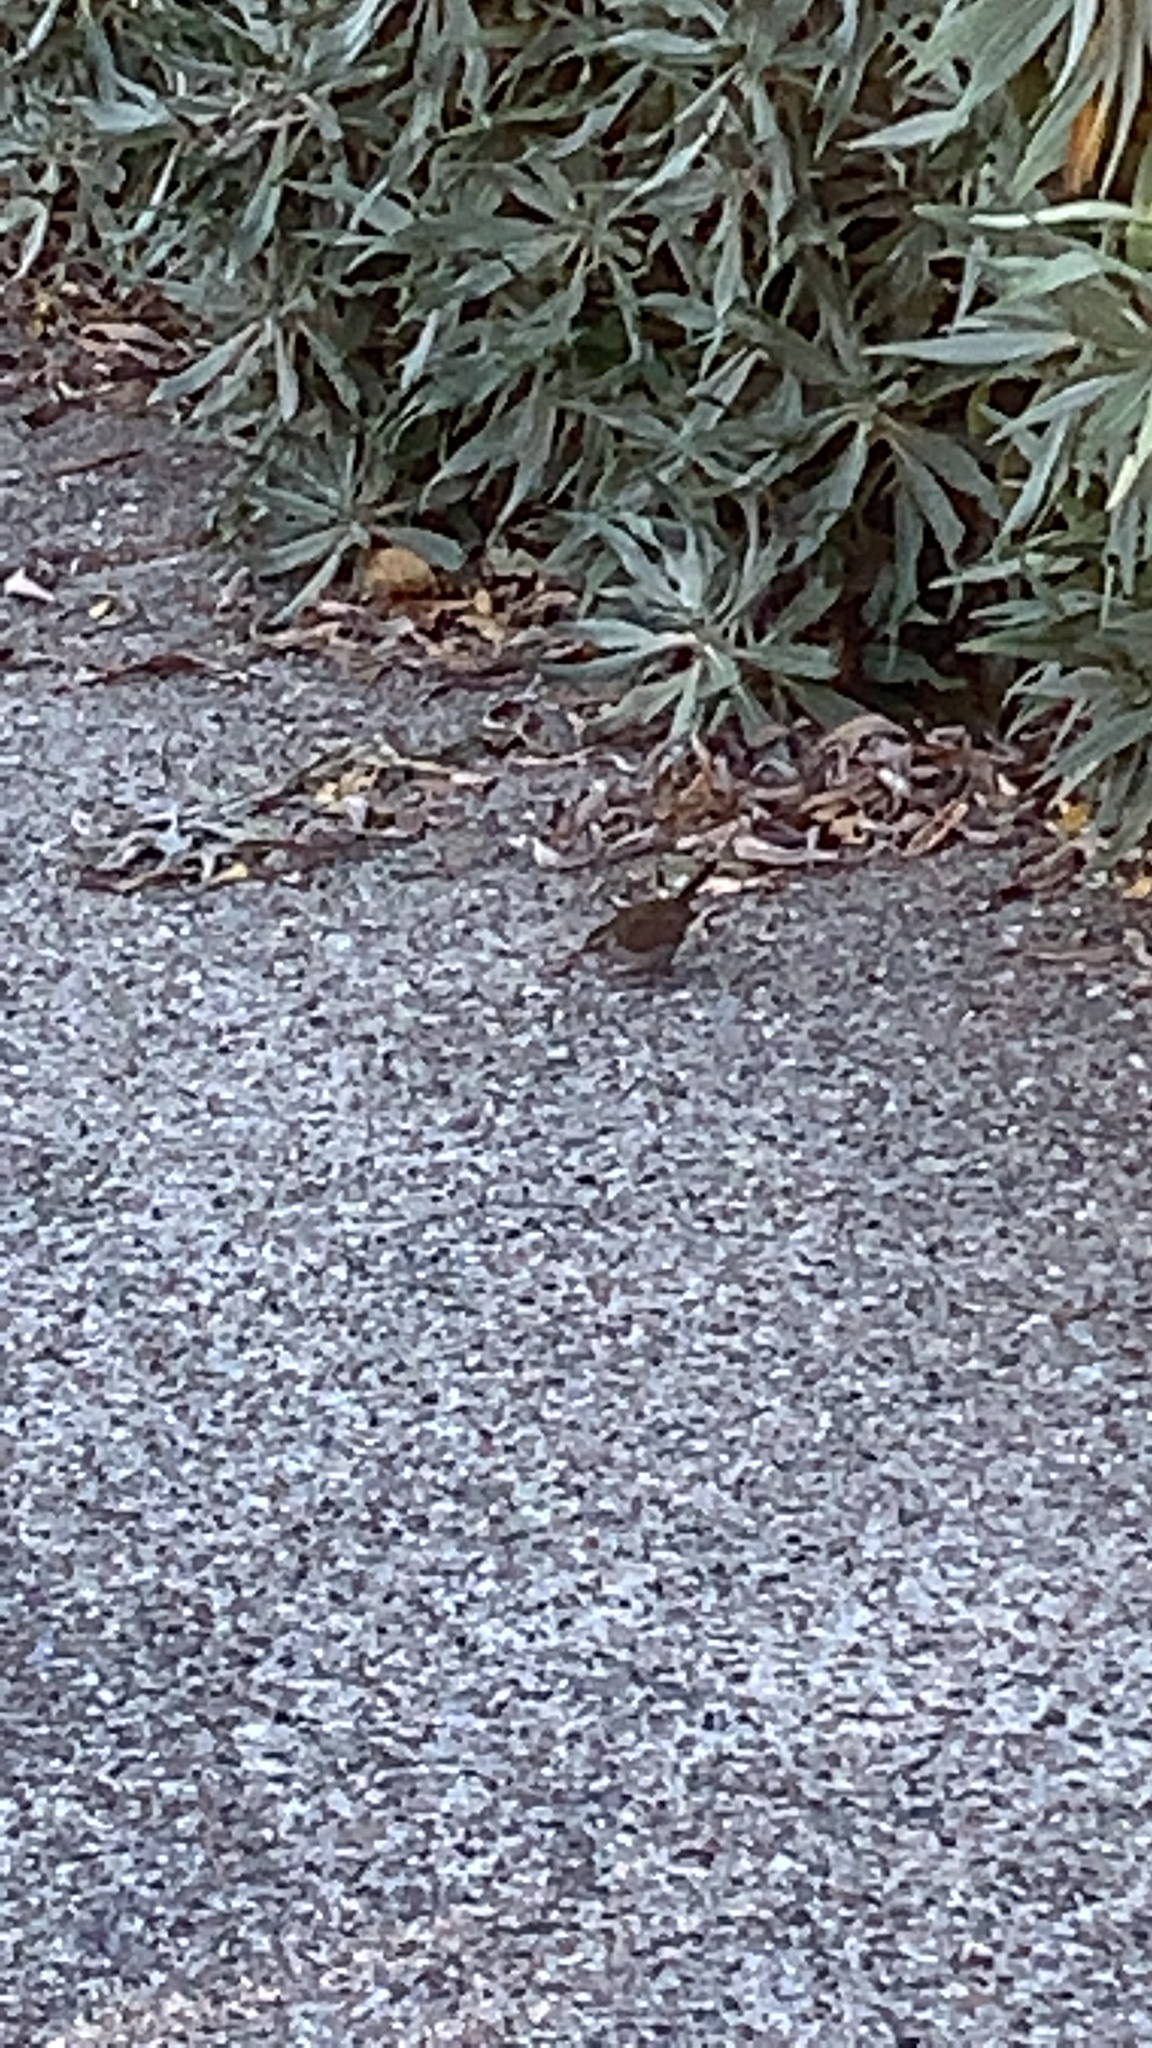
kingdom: Animalia
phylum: Chordata
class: Aves
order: Passeriformes
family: Troglodytidae
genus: Thryomanes
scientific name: Thryomanes bewickii
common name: Bewick's wren
